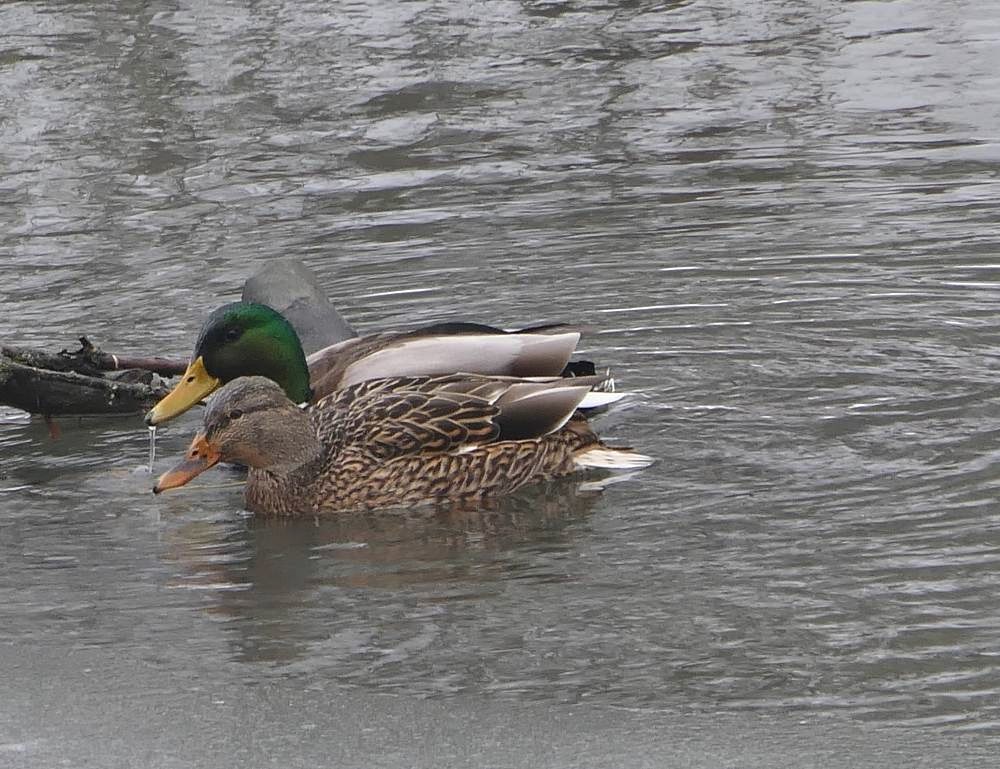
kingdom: Animalia
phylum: Chordata
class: Aves
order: Anseriformes
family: Anatidae
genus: Anas
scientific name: Anas platyrhynchos
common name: Mallard
